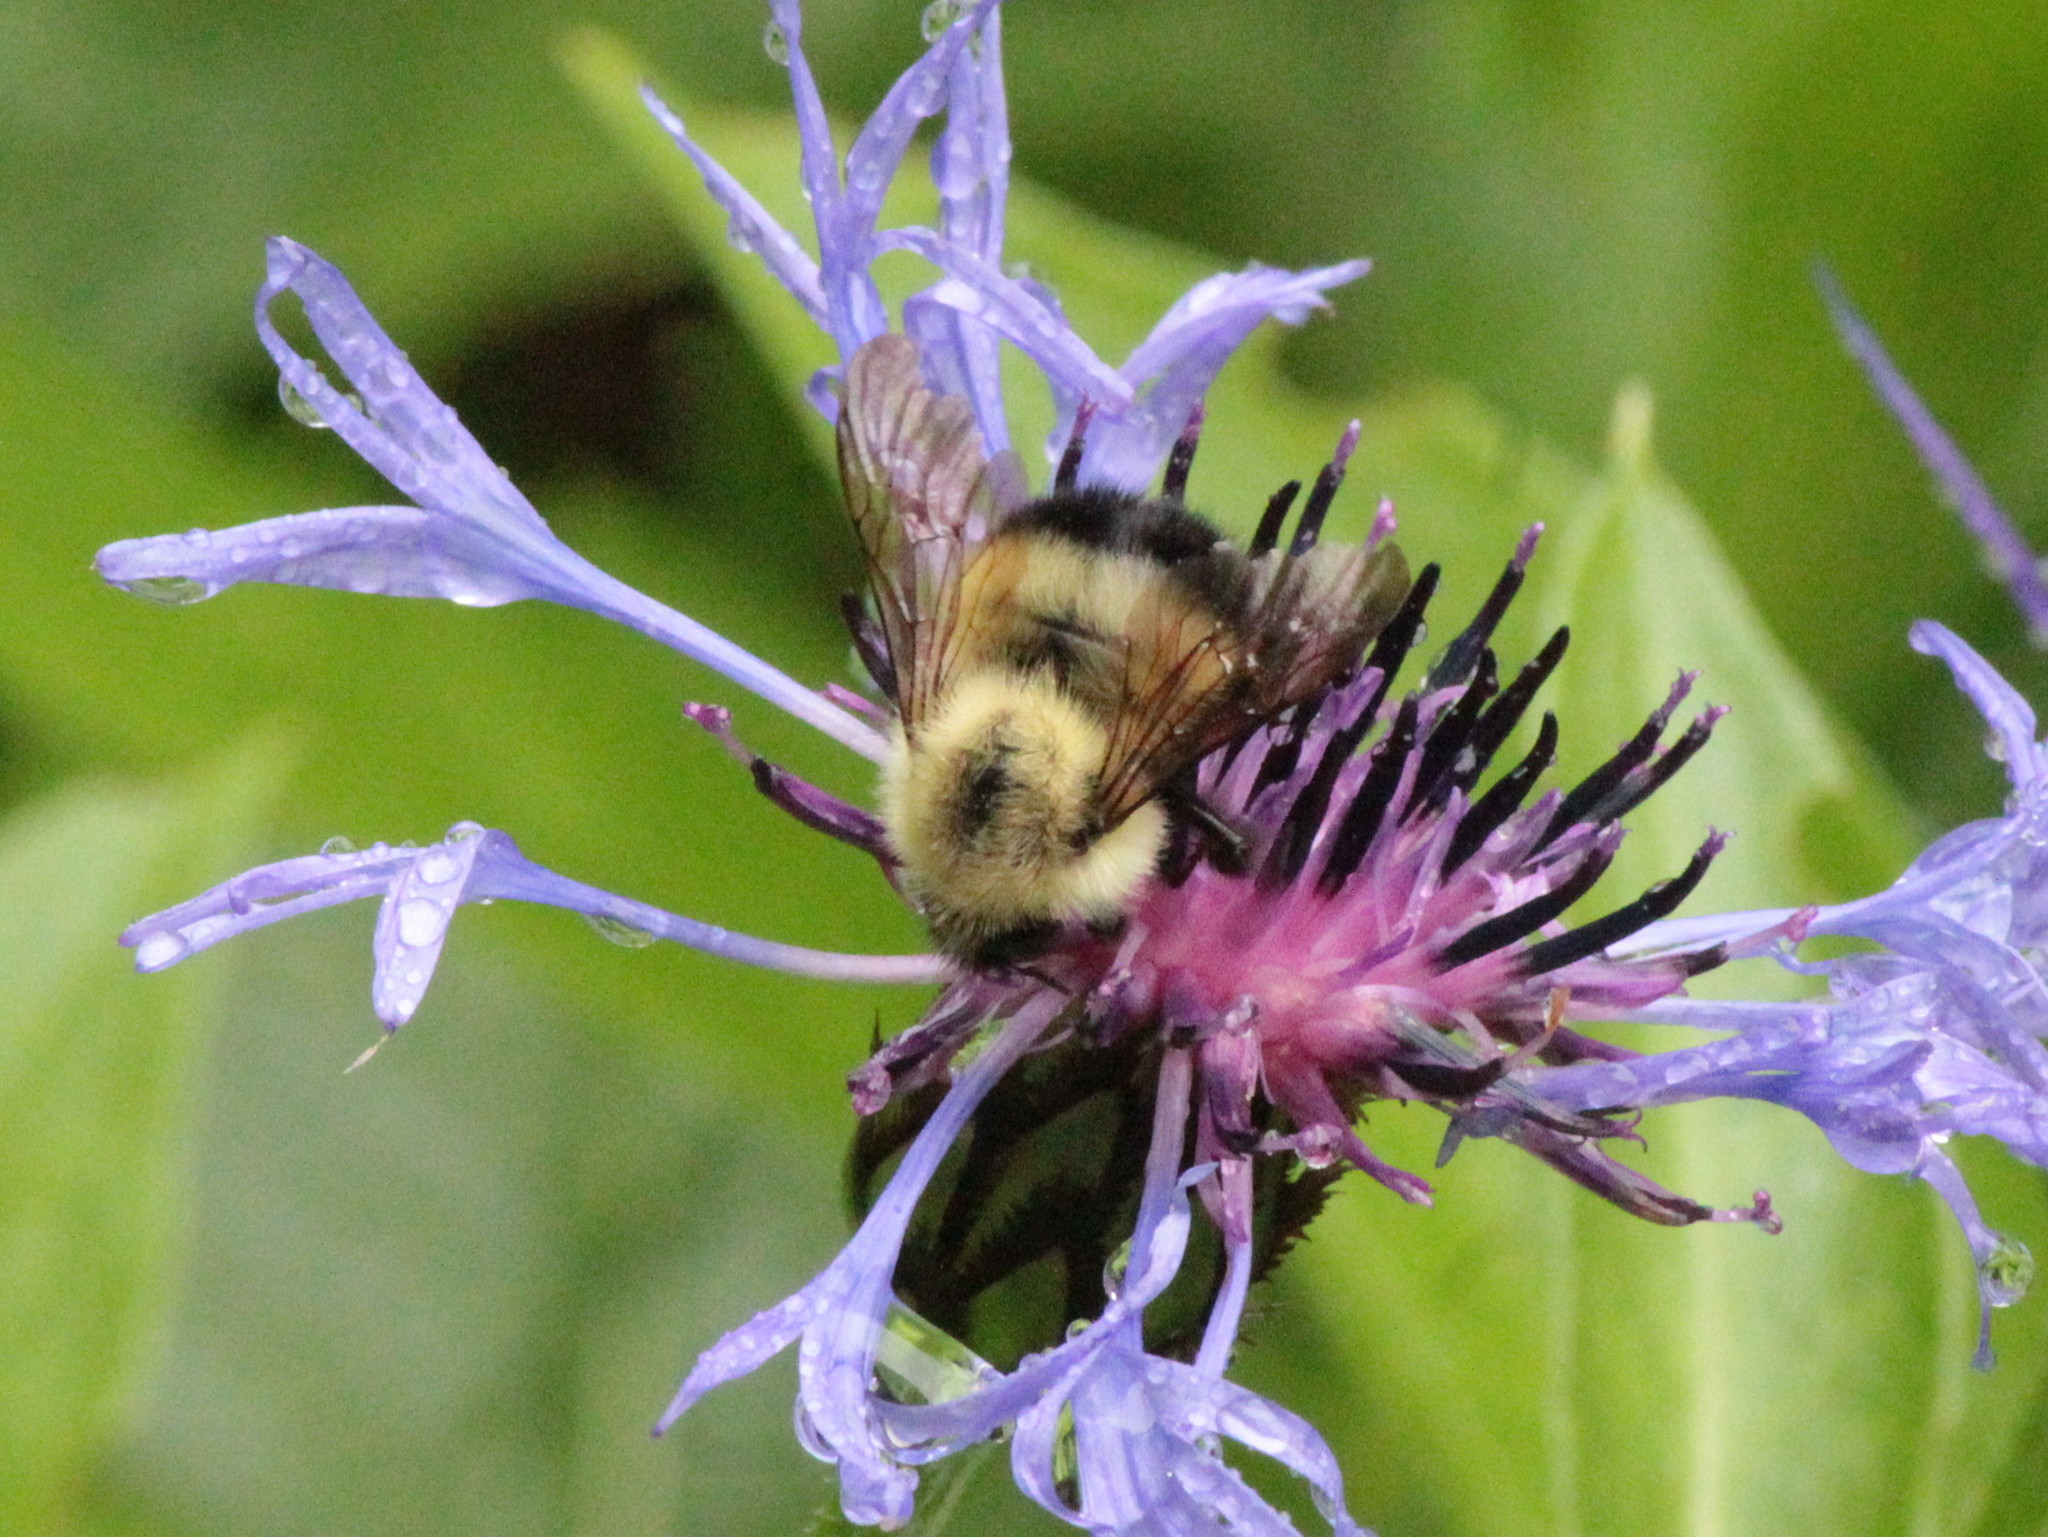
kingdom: Animalia
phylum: Arthropoda
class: Insecta
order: Hymenoptera
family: Apidae
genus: Bombus
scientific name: Bombus vagans
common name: Half-black bumble bee
